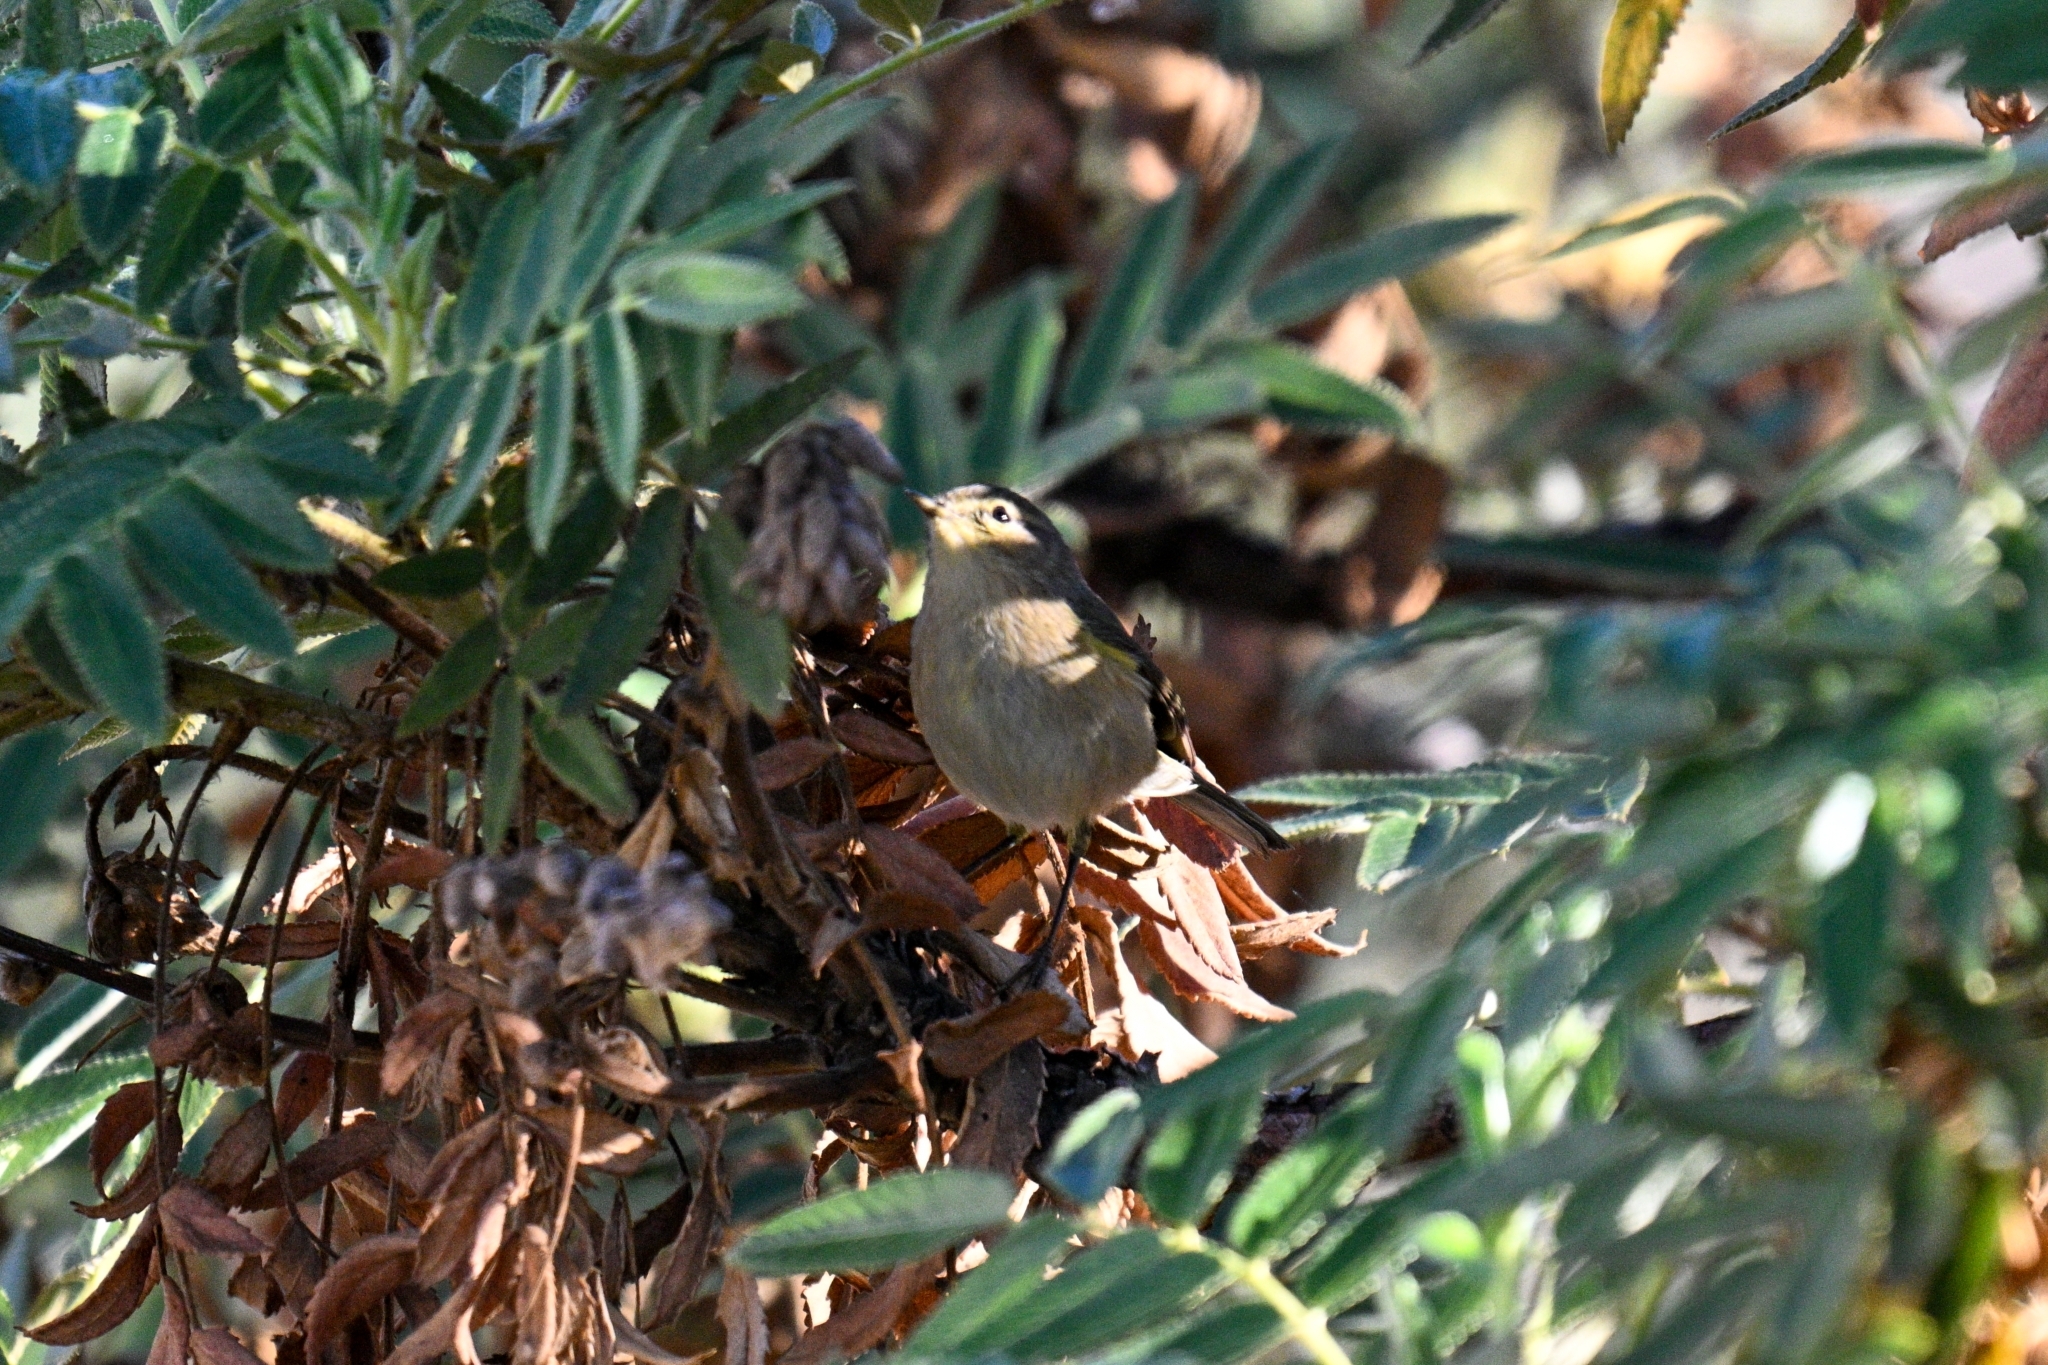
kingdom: Animalia
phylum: Chordata
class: Aves
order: Passeriformes
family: Phylloscopidae
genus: Phylloscopus
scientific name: Phylloscopus canariensis
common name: Canary islands chiffchaff
